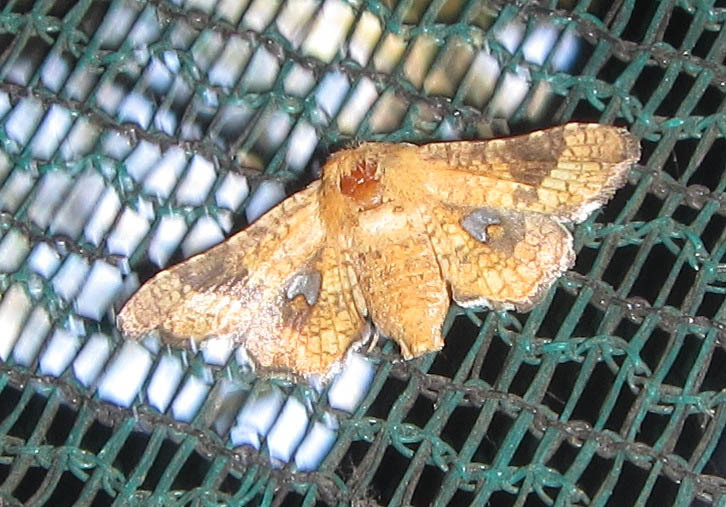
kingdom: Animalia
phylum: Arthropoda
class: Insecta
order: Lepidoptera
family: Thyrididae
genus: Dysodia
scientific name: Dysodia constellata
